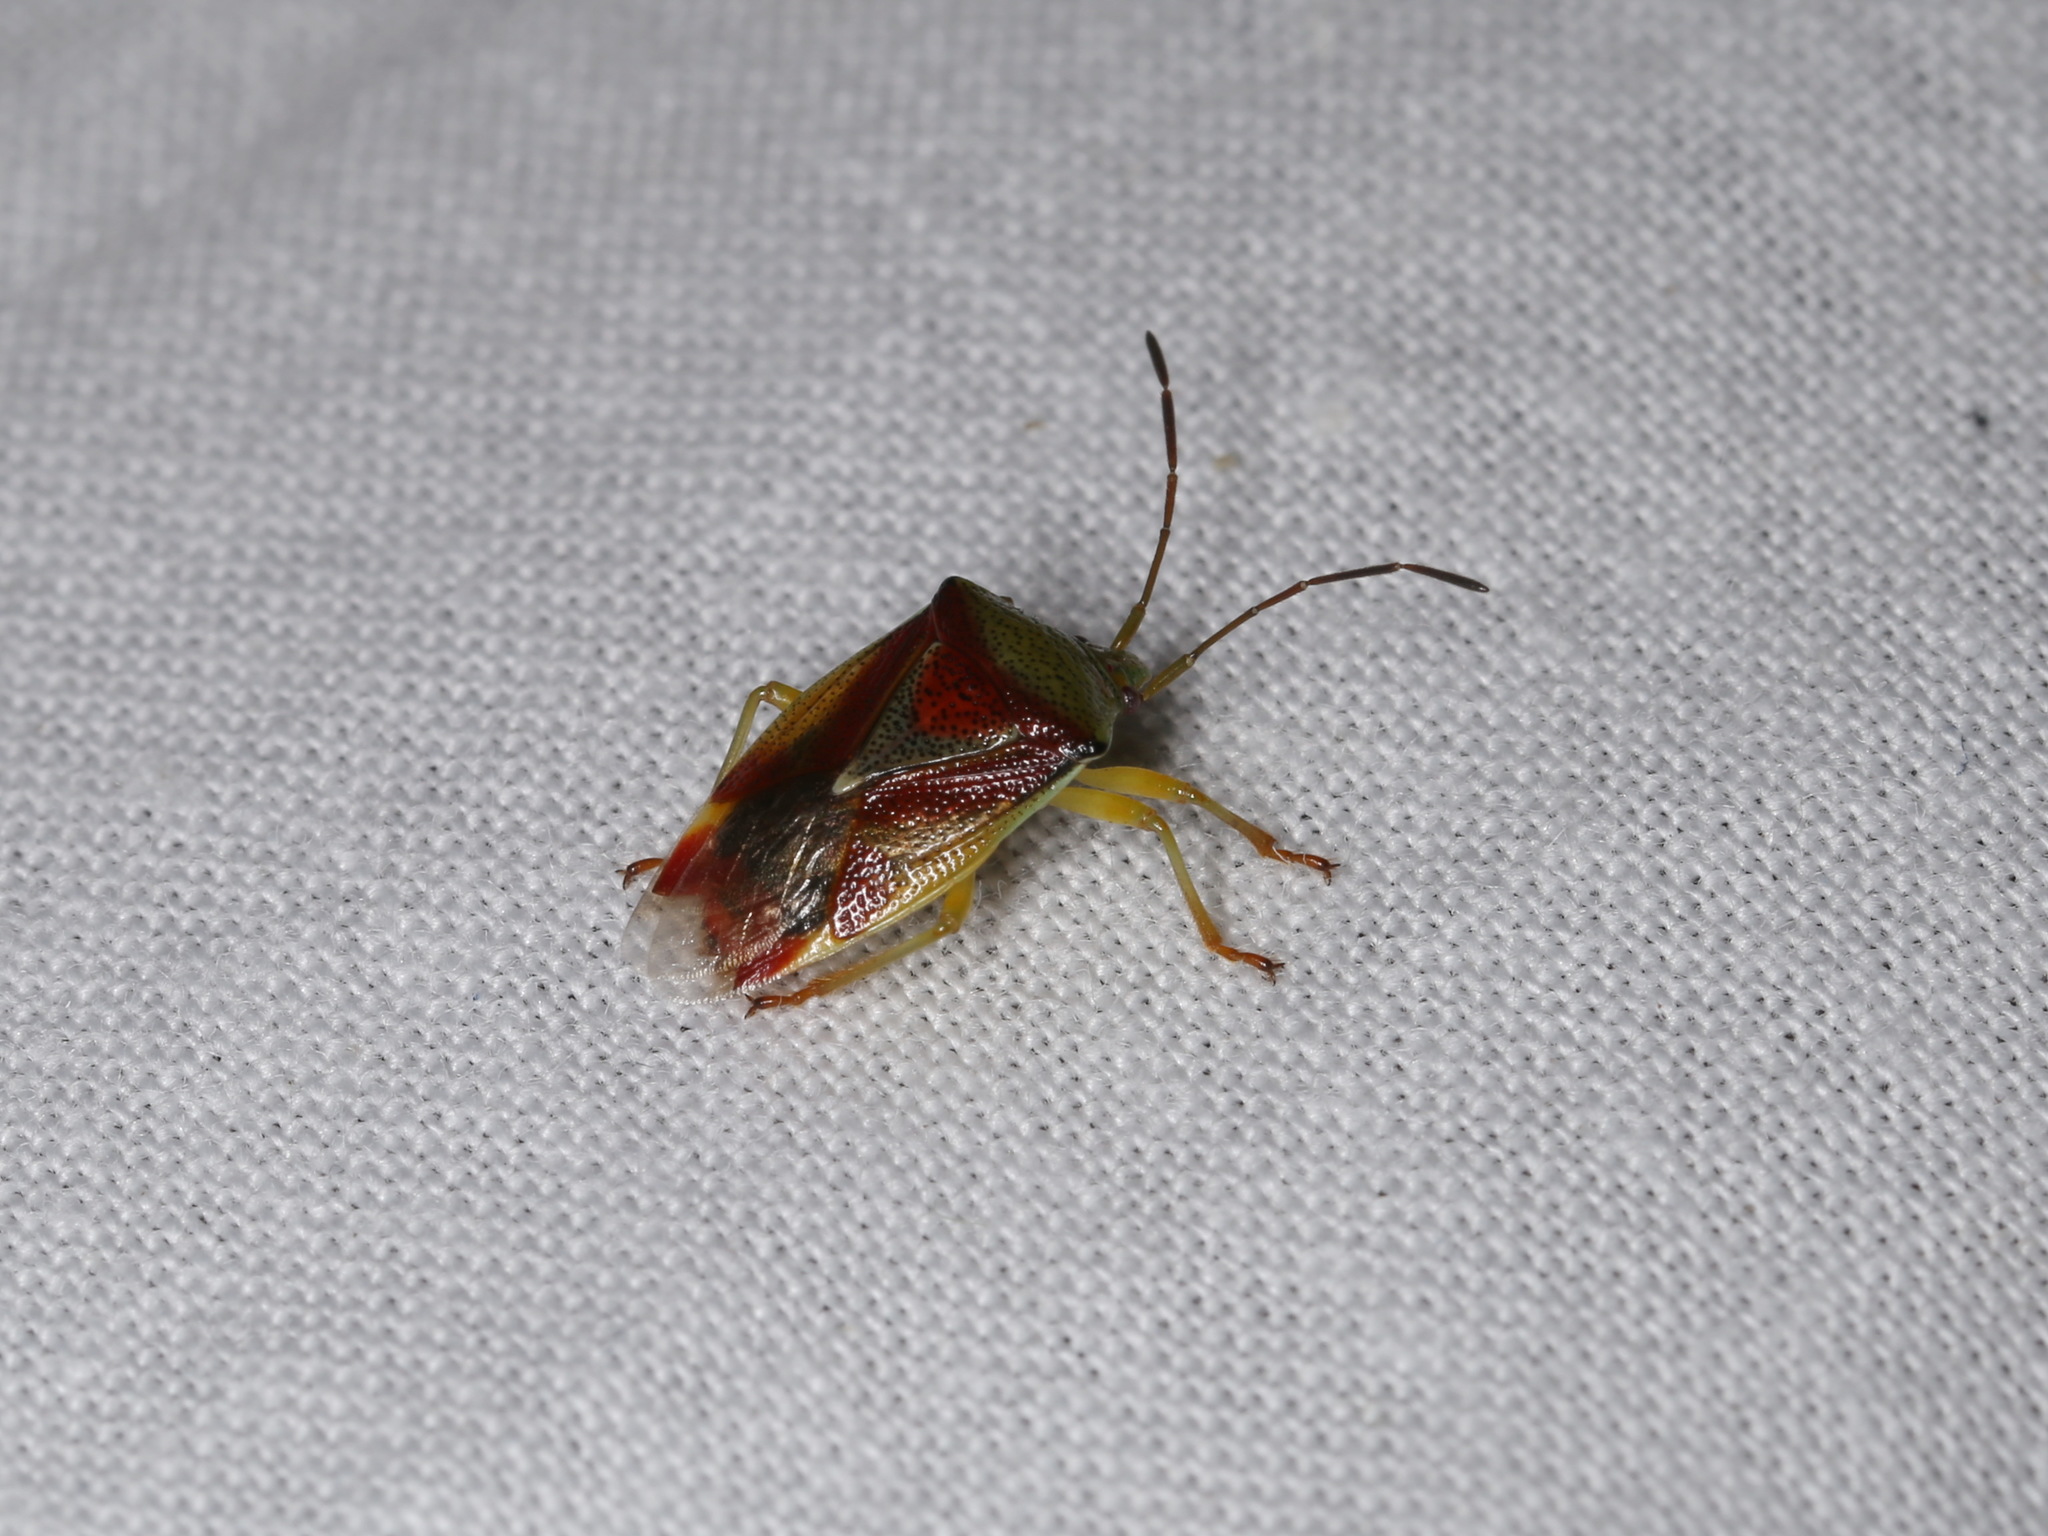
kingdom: Animalia
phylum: Arthropoda
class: Insecta
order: Hemiptera
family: Acanthosomatidae
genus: Elasmostethus
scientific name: Elasmostethus interstinctus
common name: Birch shieldbug
